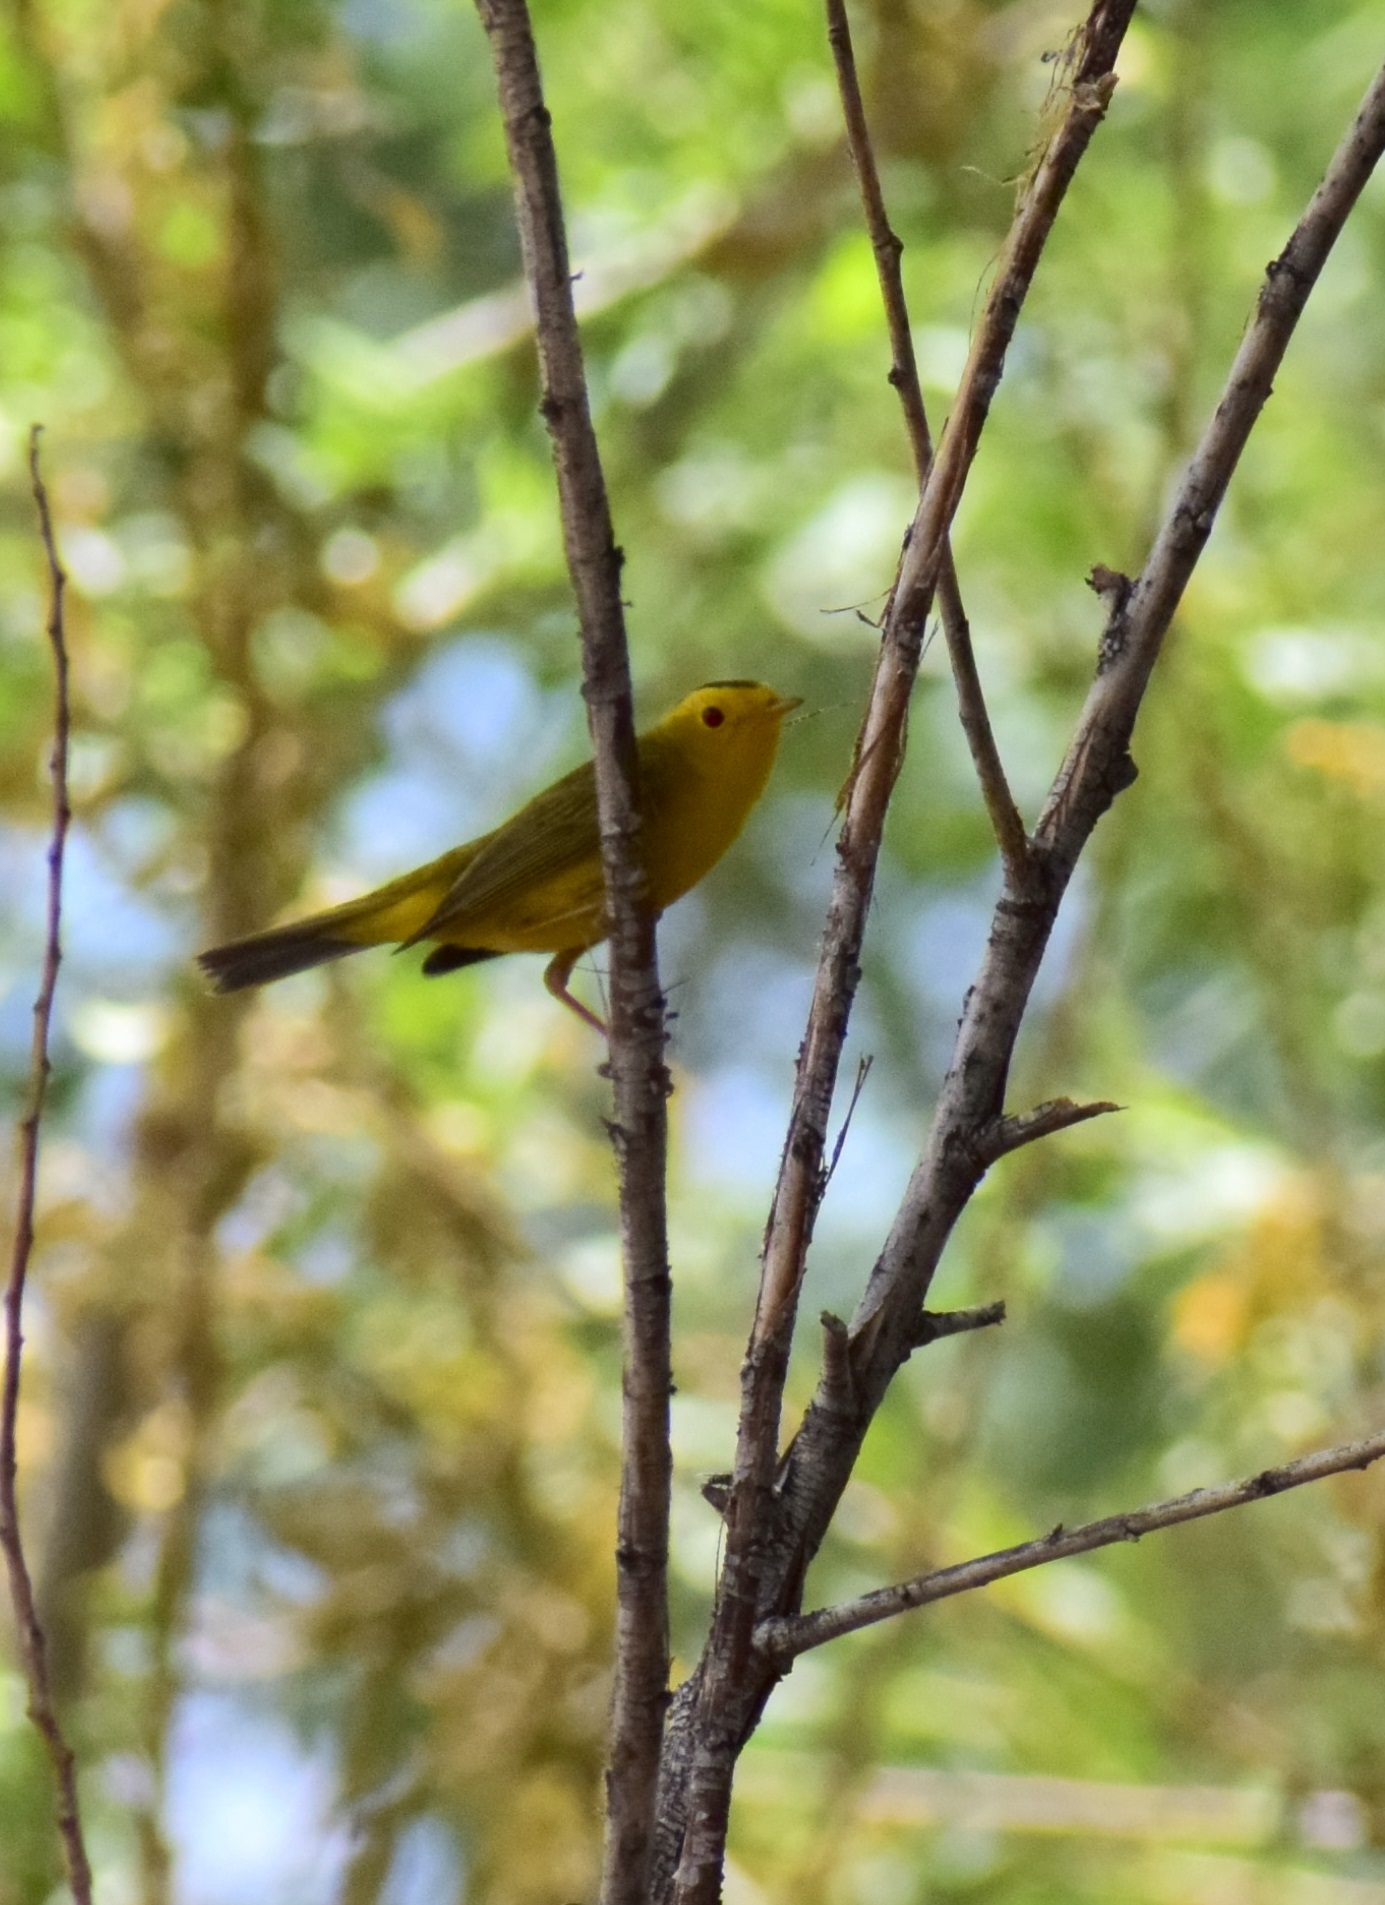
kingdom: Animalia
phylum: Chordata
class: Aves
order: Passeriformes
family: Parulidae
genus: Cardellina
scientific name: Cardellina pusilla
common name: Wilson's warbler
